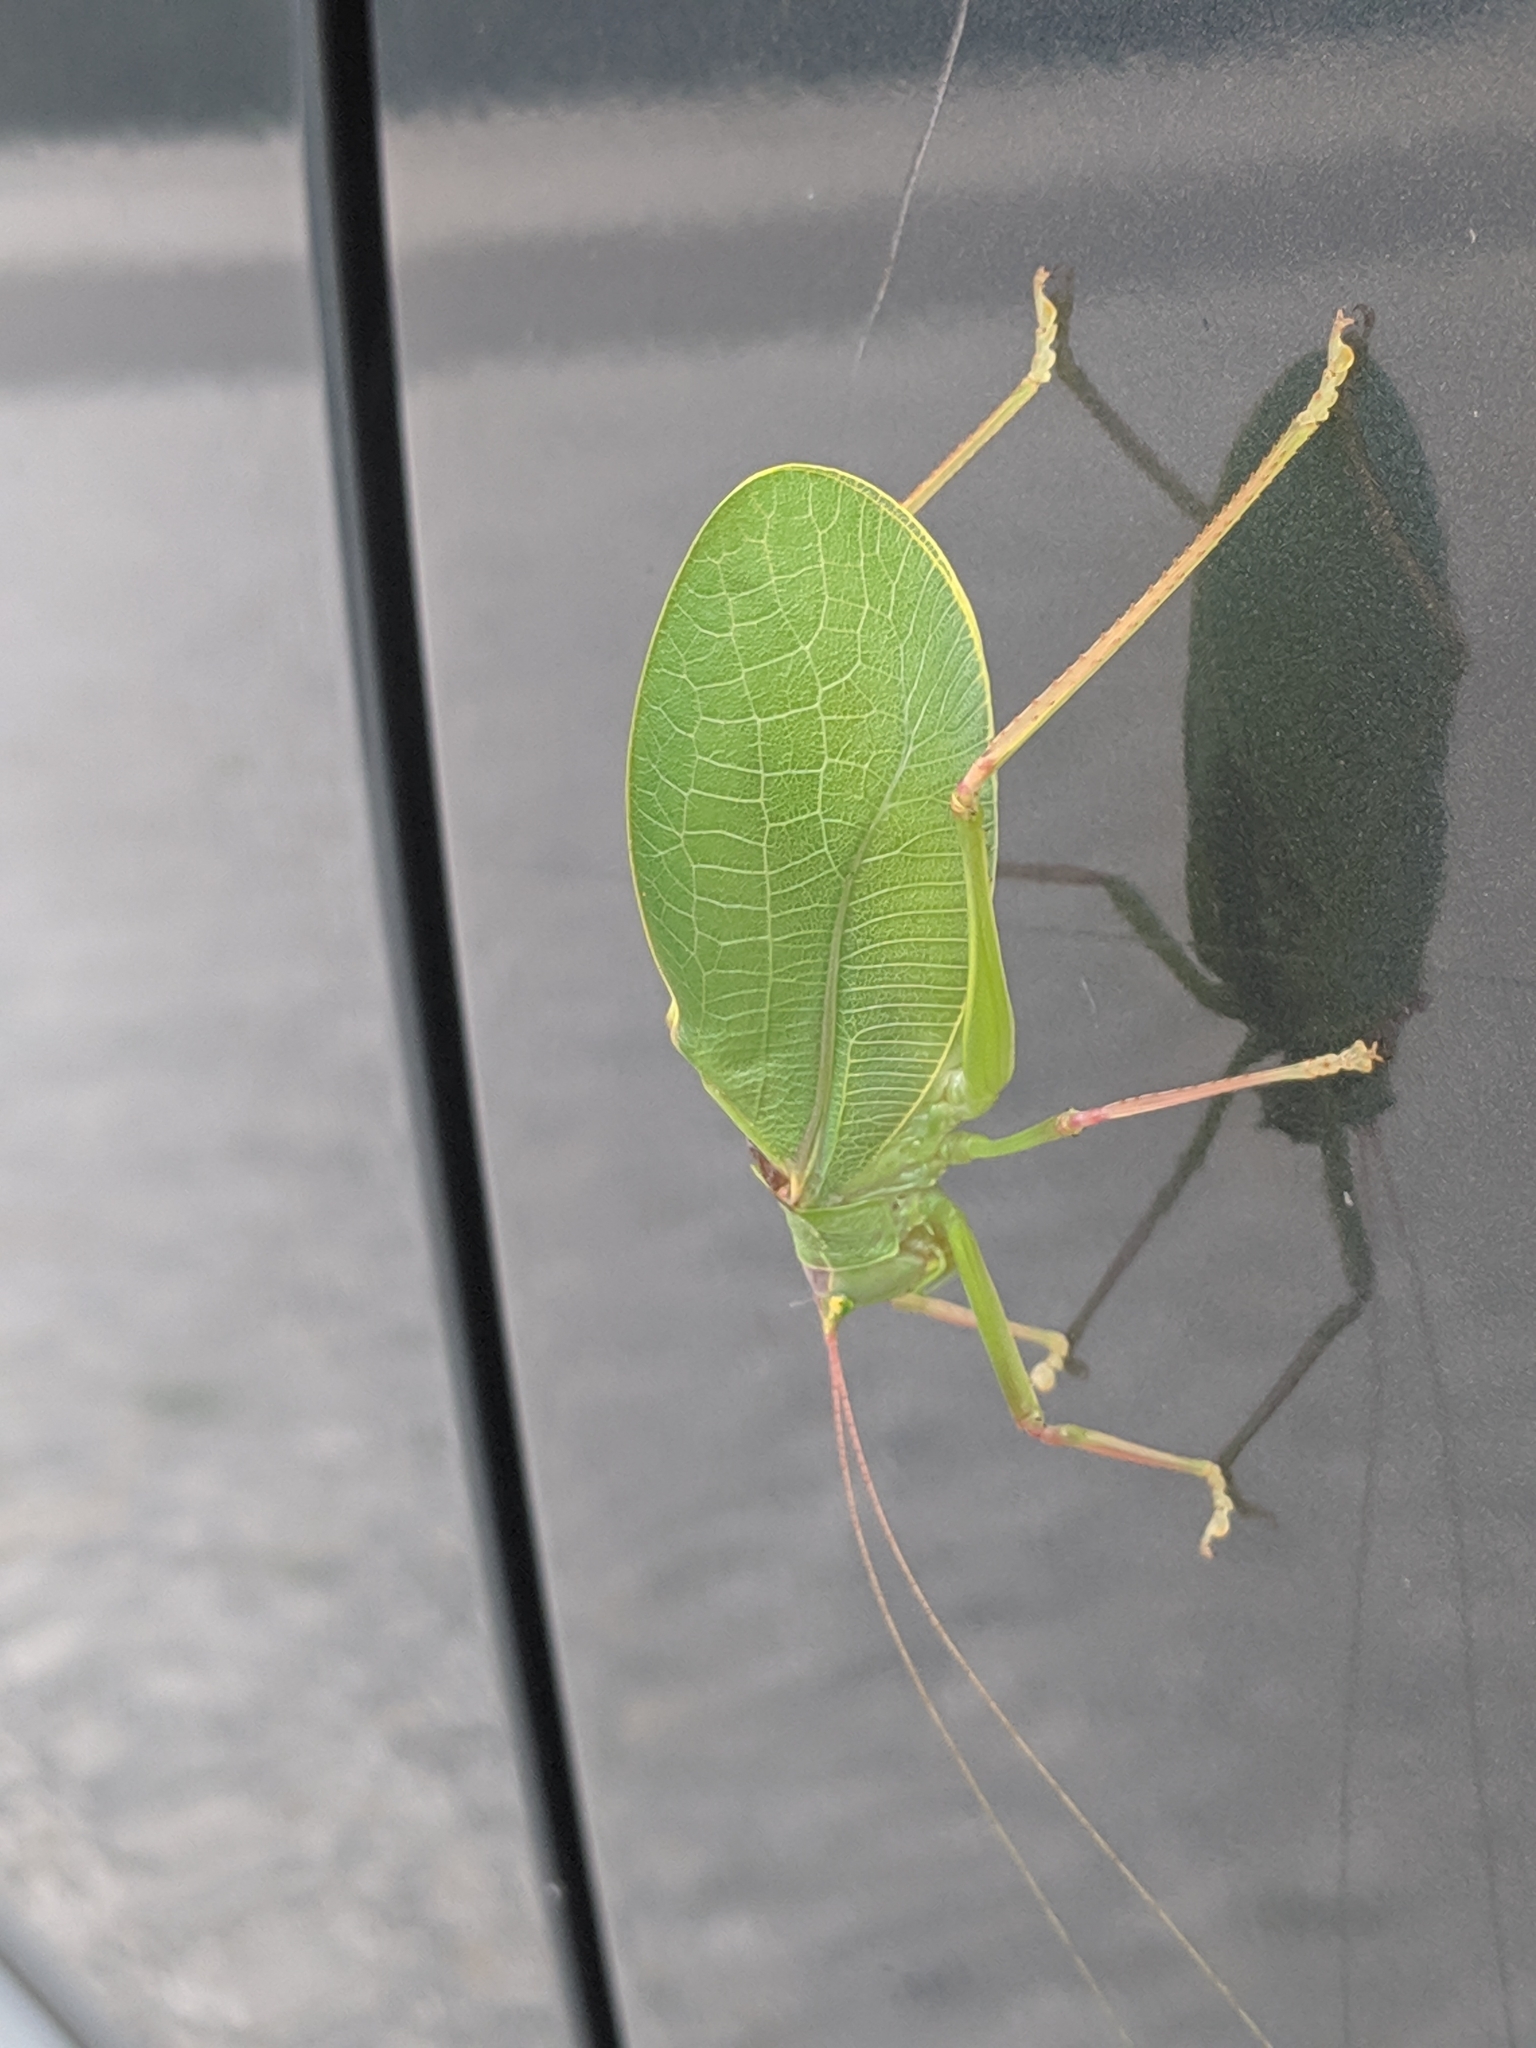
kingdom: Animalia
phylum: Arthropoda
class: Insecta
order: Orthoptera
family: Tettigoniidae
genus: Pterophylla
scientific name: Pterophylla camellifolia
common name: Common true katydid
